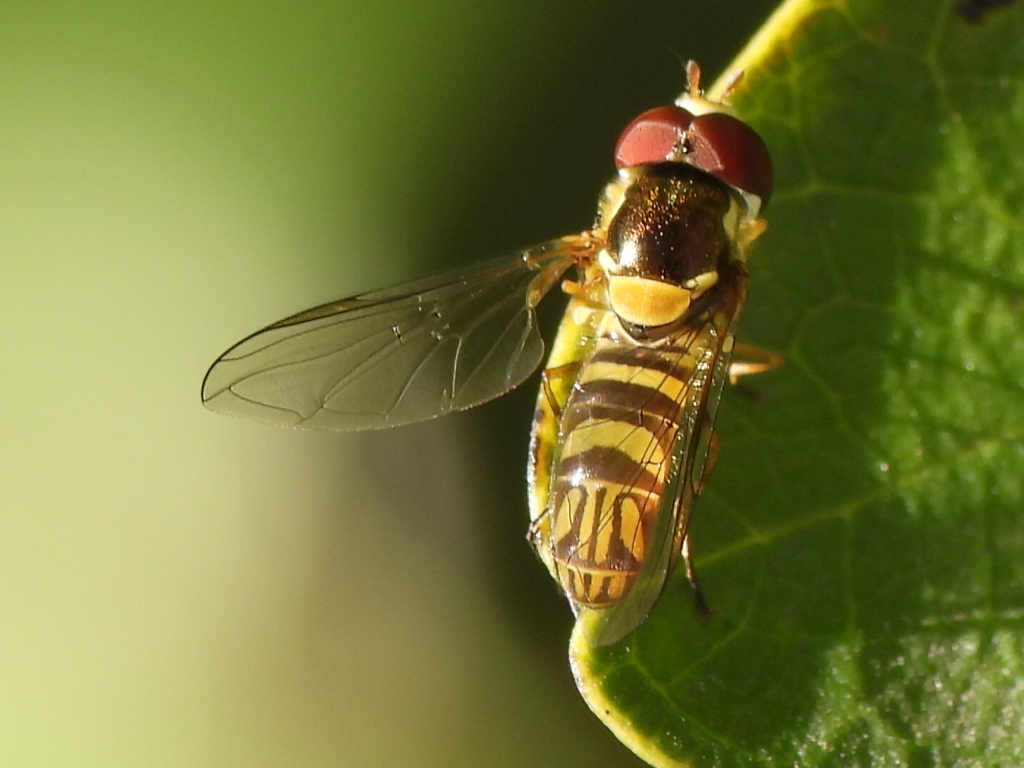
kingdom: Animalia
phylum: Arthropoda
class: Insecta
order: Diptera
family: Syrphidae
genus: Allograpta
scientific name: Allograpta obliqua
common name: Common oblique syrphid
